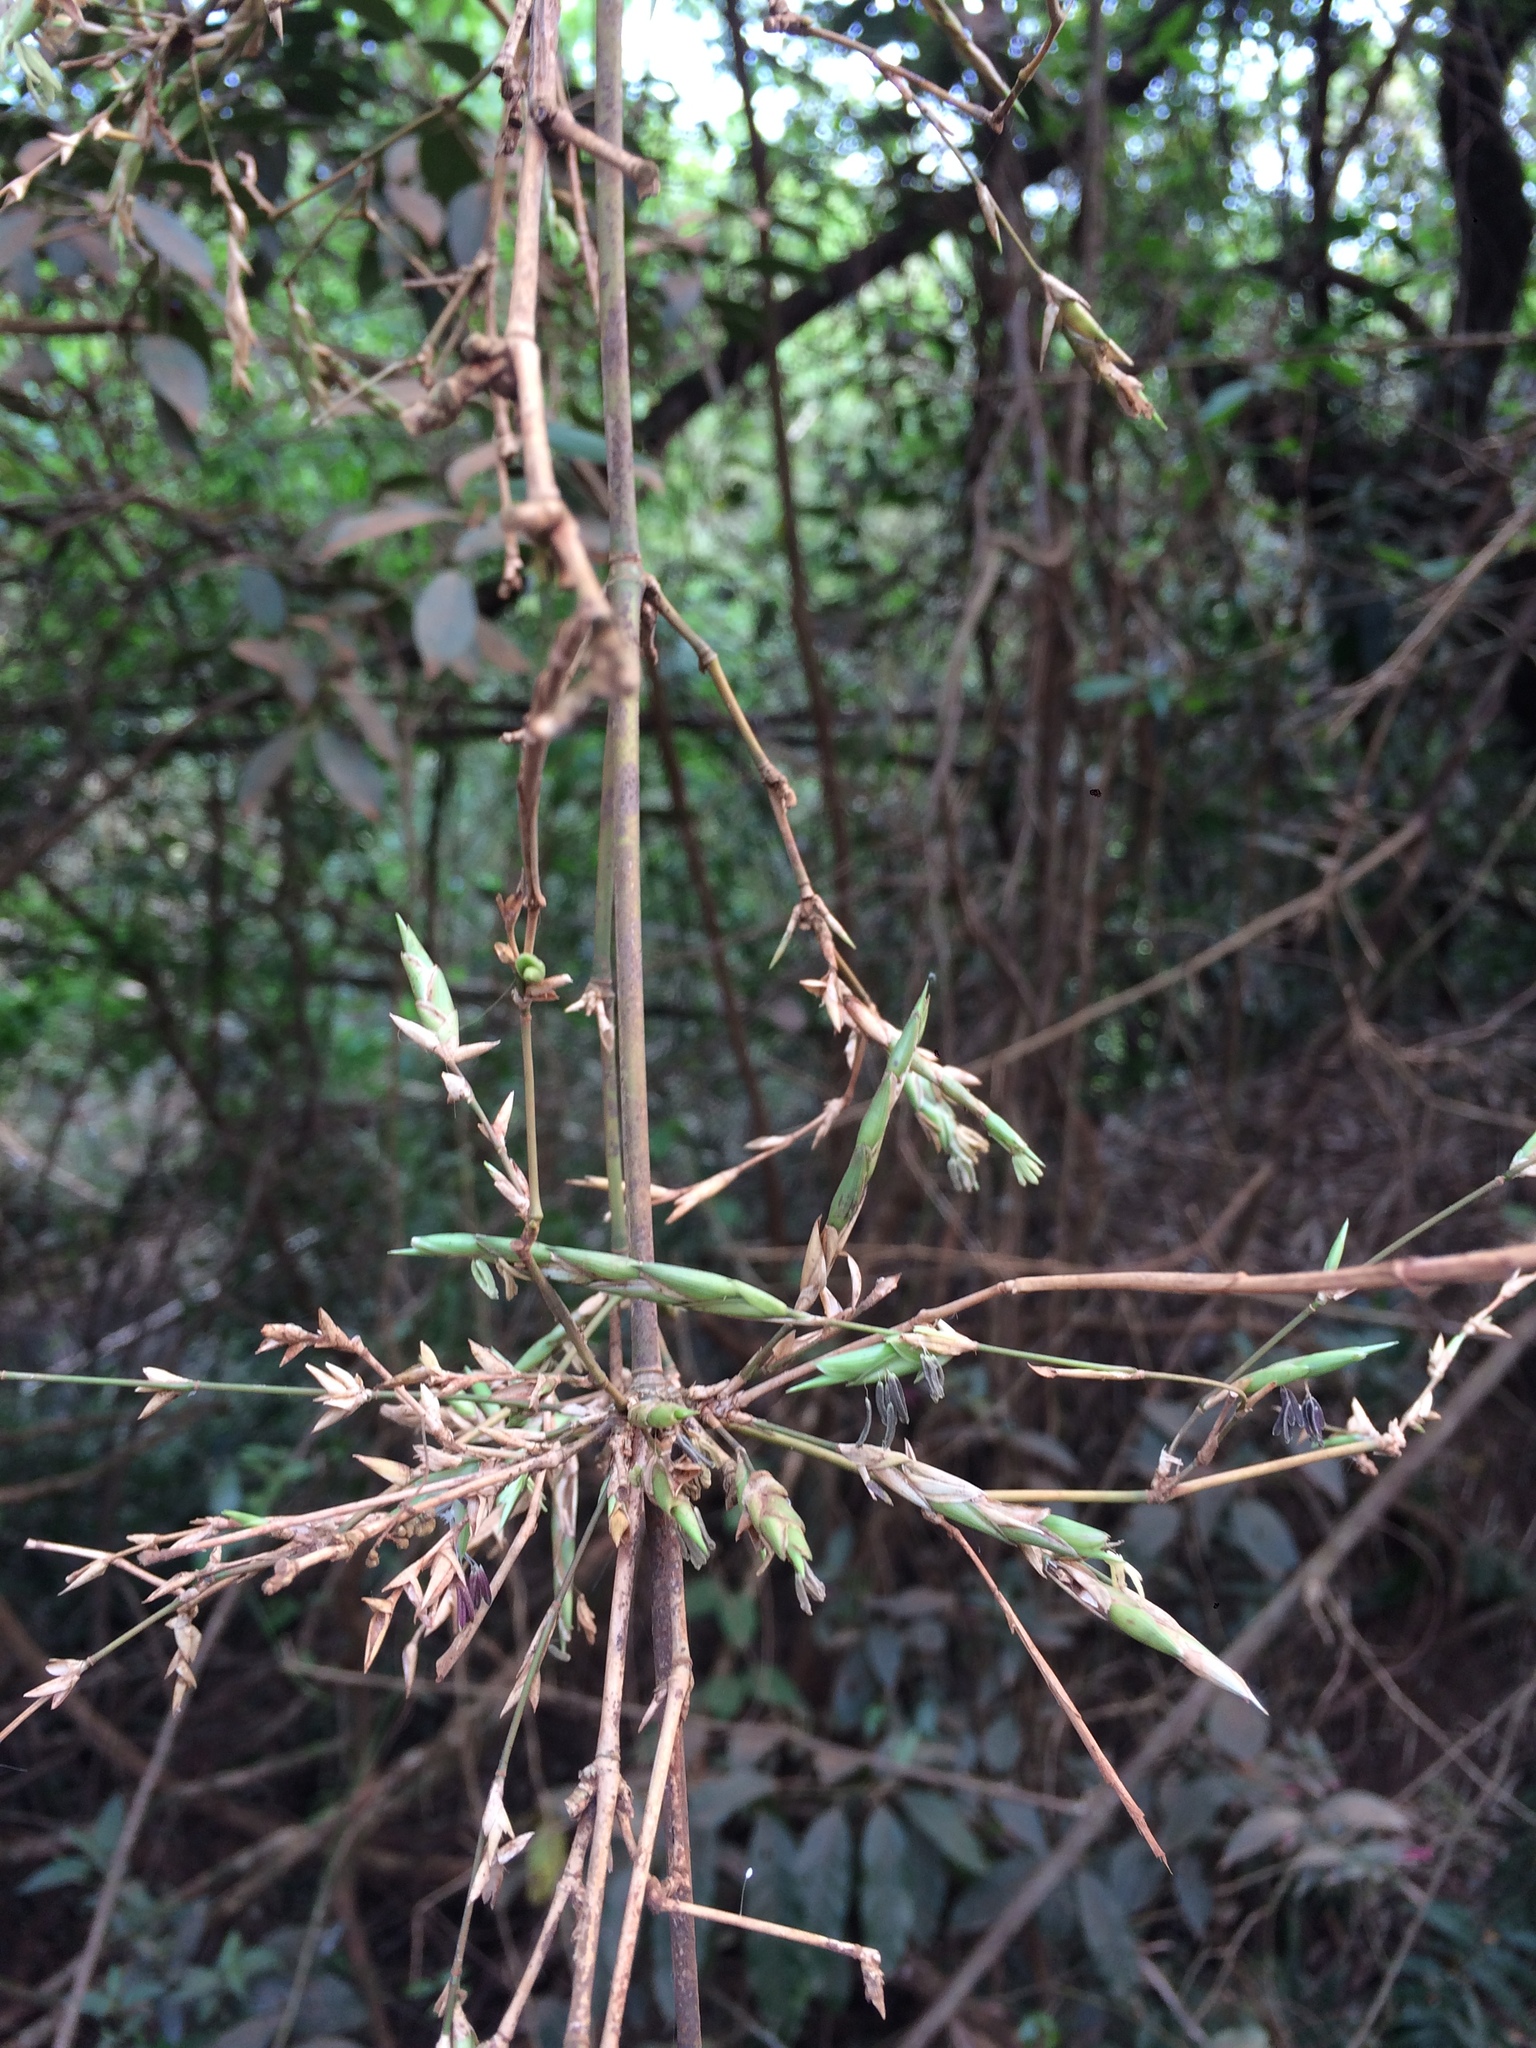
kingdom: Plantae
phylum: Tracheophyta
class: Liliopsida
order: Poales
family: Poaceae
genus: Guadua
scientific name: Guadua trinii
